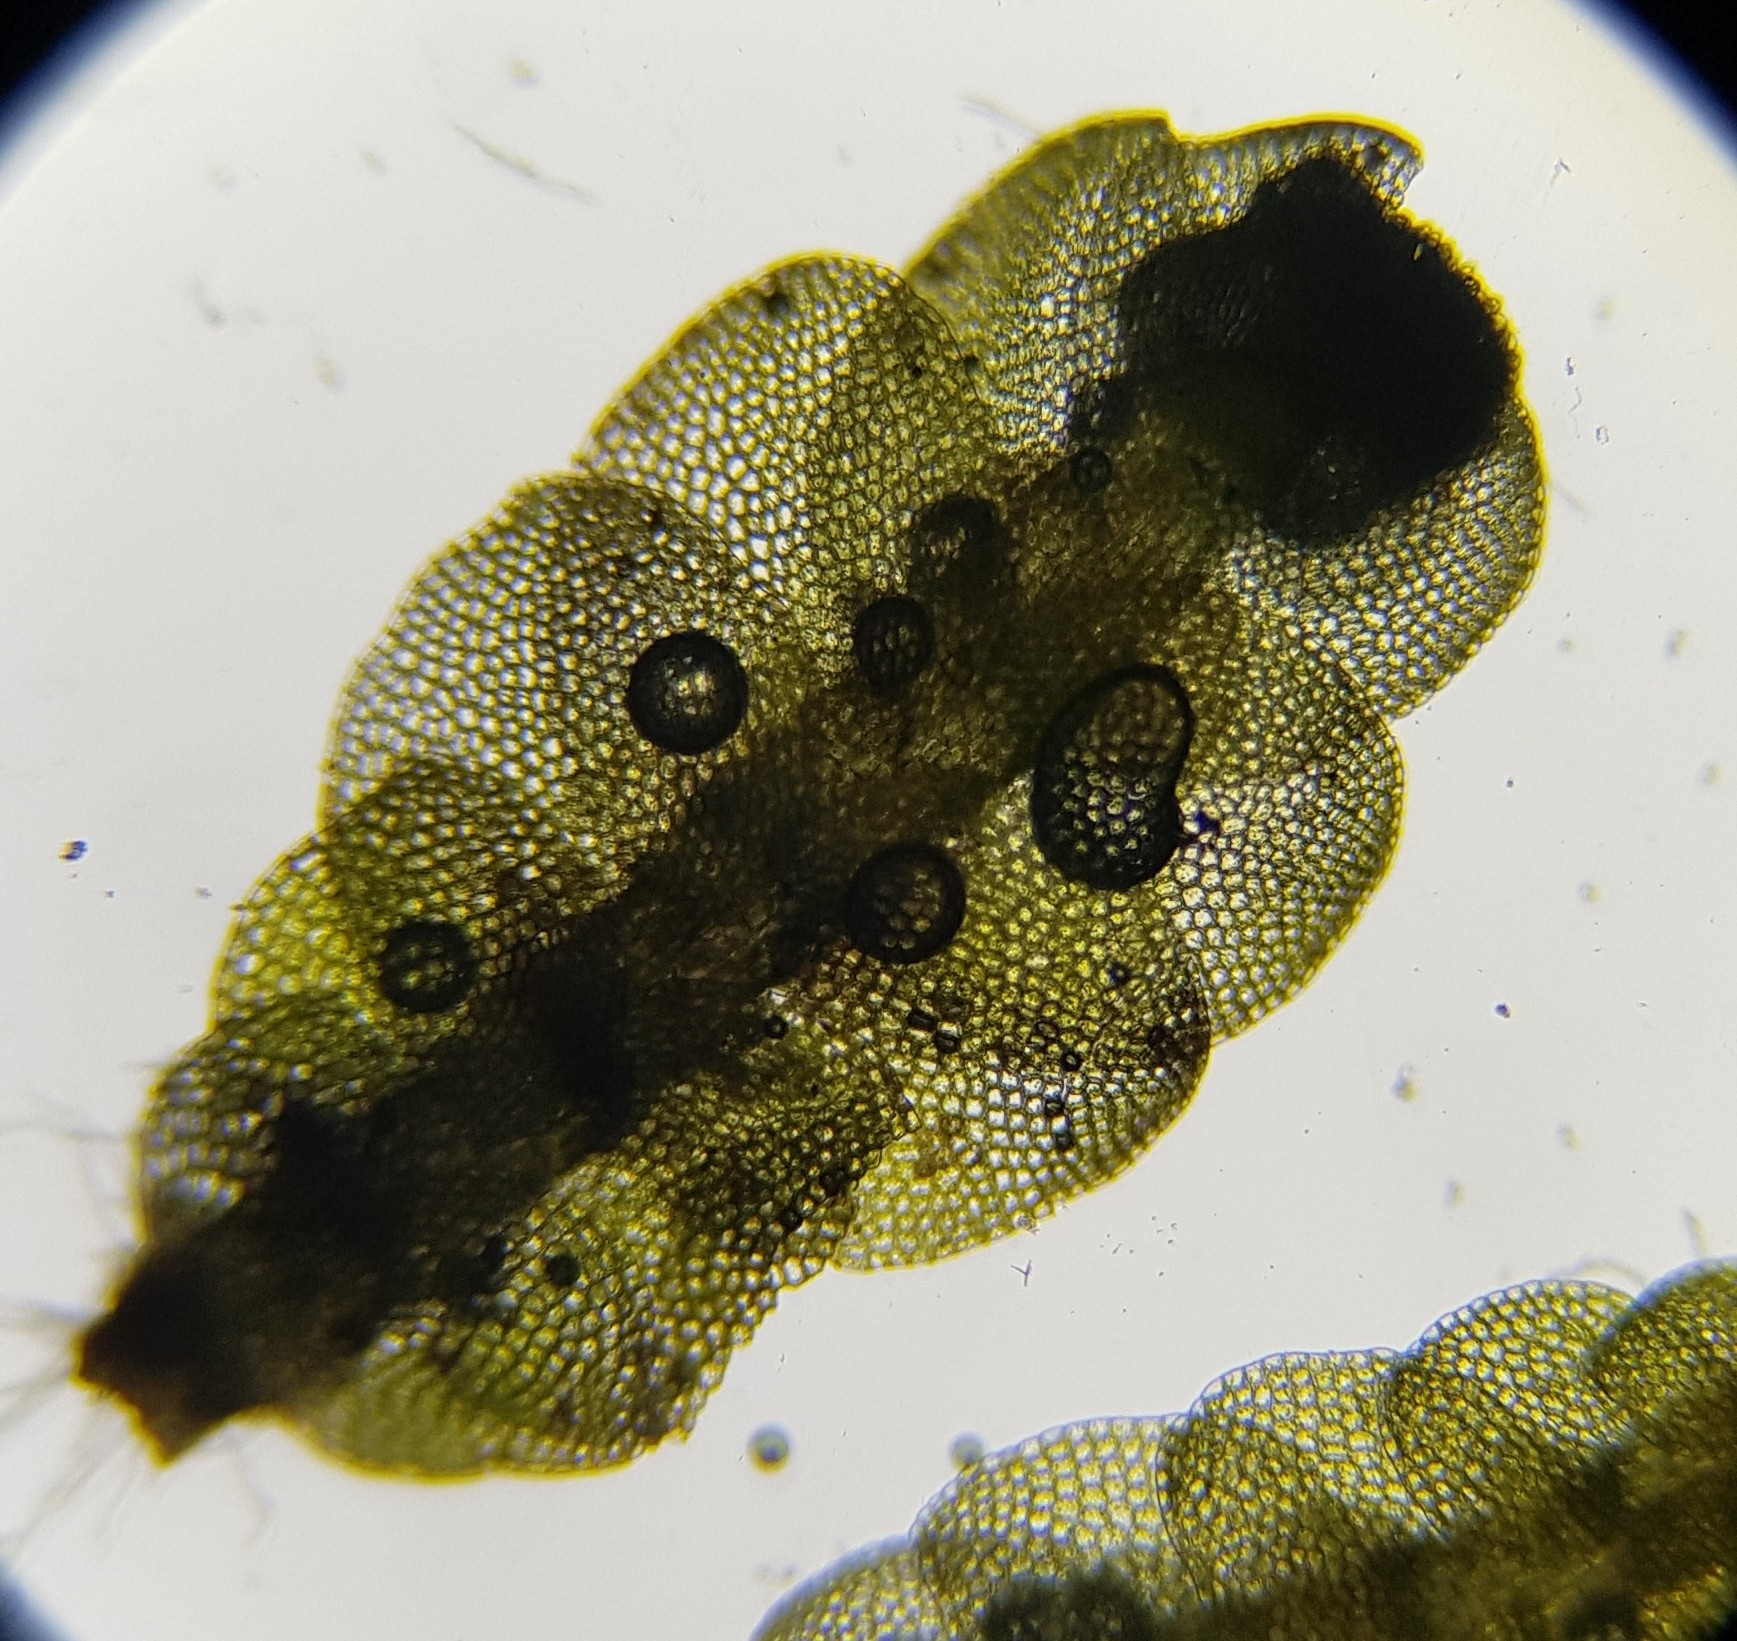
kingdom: Plantae
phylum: Marchantiophyta
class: Jungermanniopsida
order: Jungermanniales
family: Calypogeiaceae
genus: Calypogeia
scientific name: Calypogeia muelleriana
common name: Mueller s pouchwort
